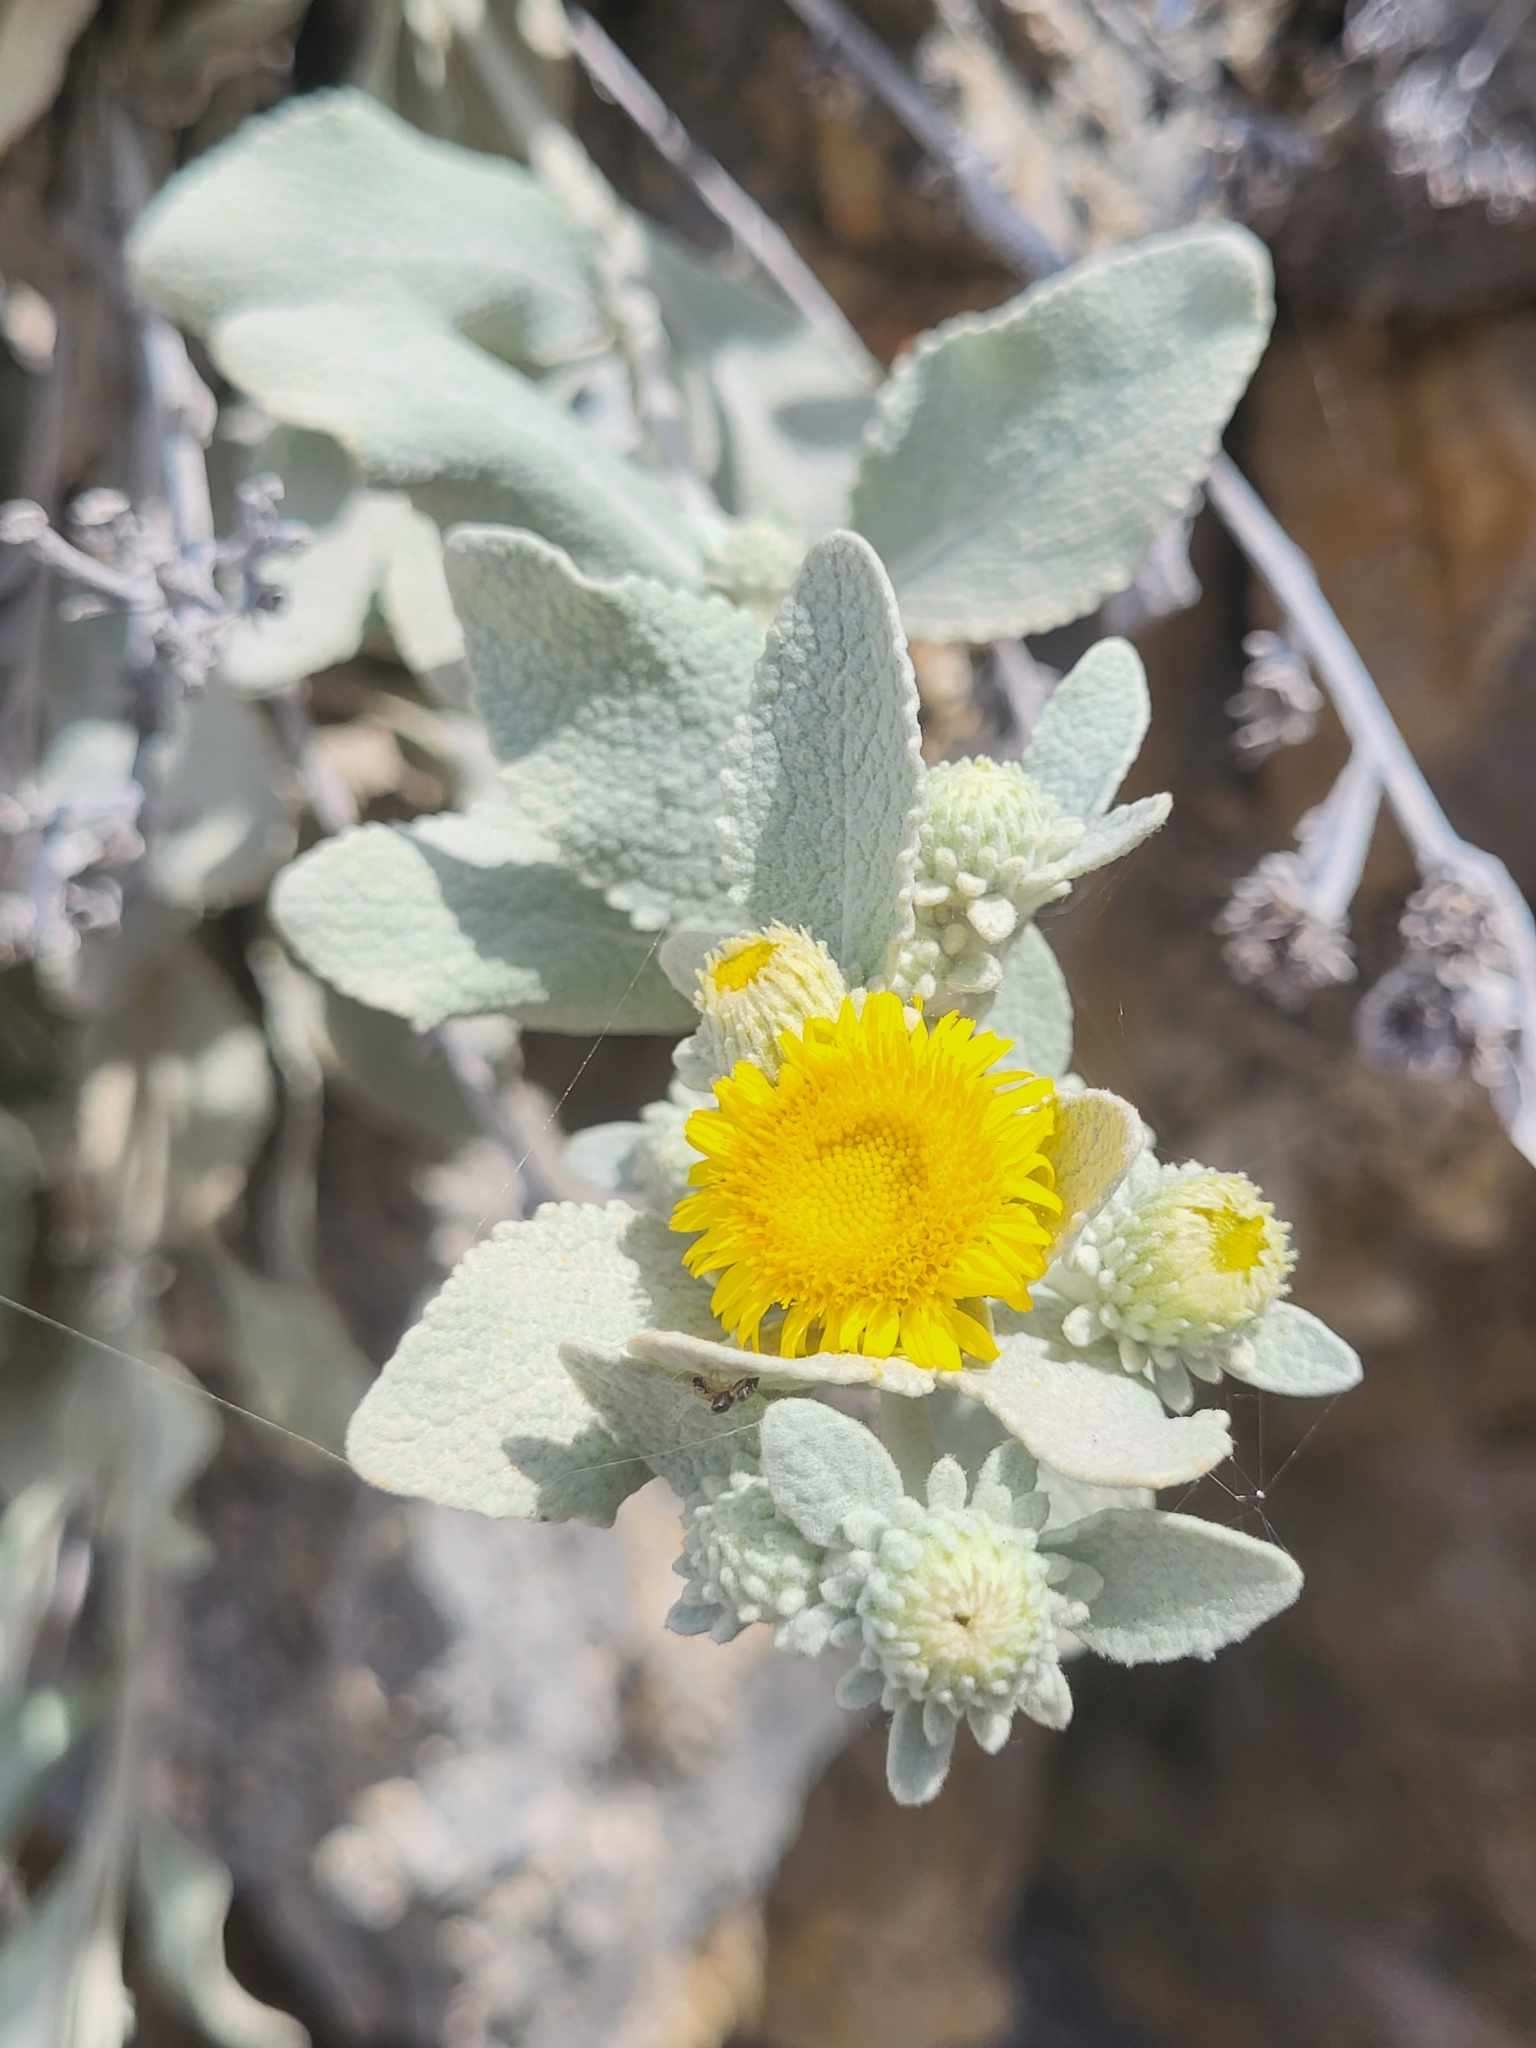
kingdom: Plantae
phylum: Tracheophyta
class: Magnoliopsida
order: Asterales
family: Asteraceae
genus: Pentanema
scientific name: Pentanema verbascifolium
